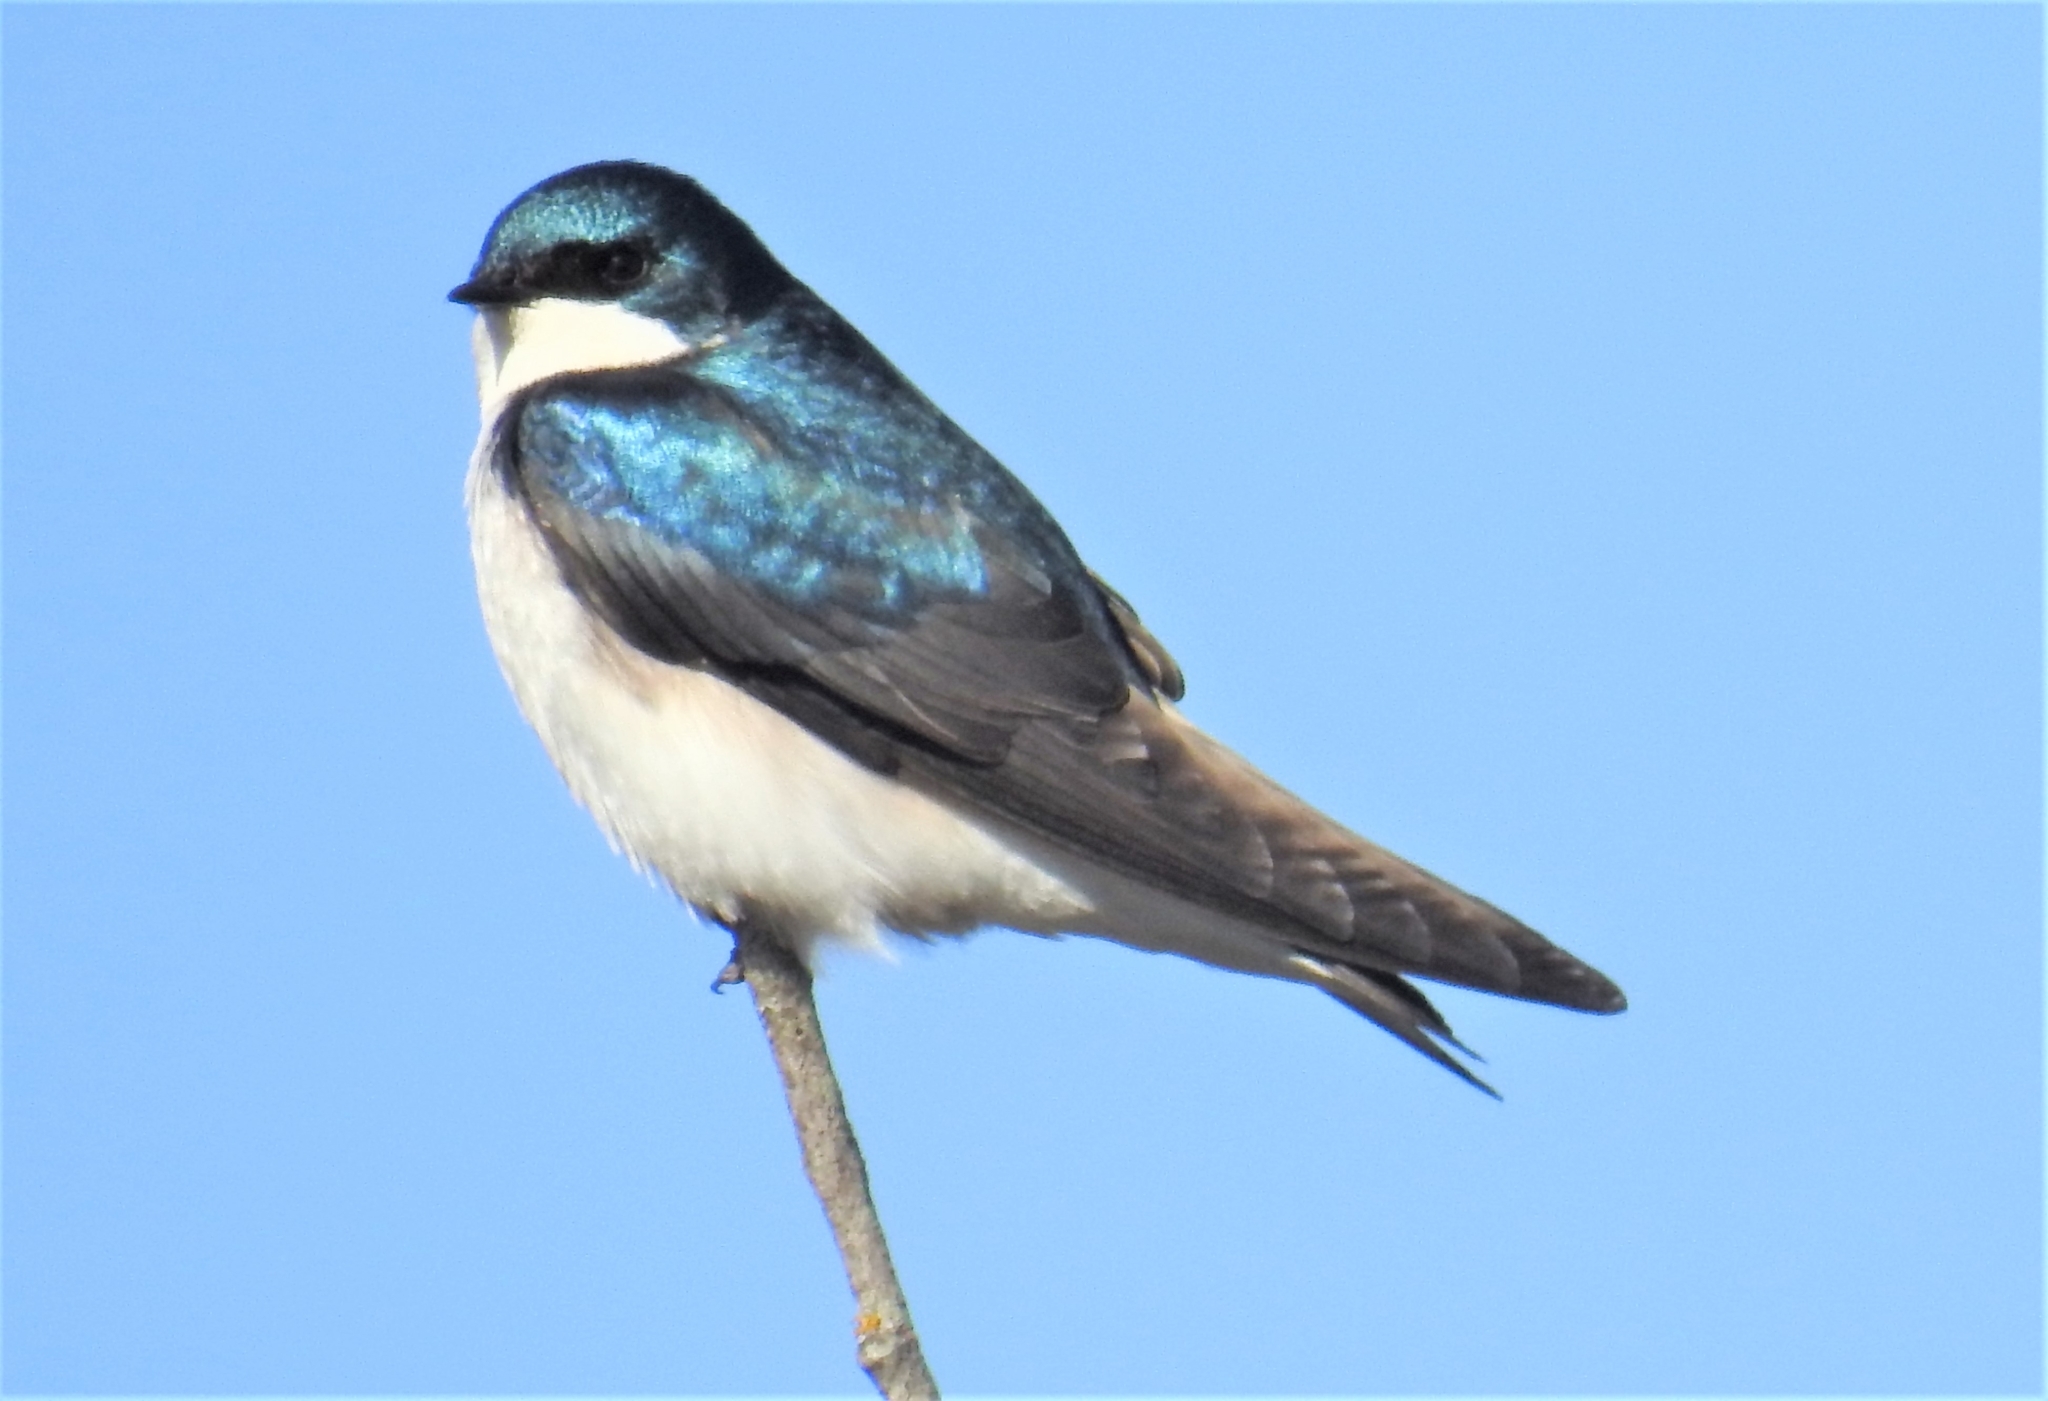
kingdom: Animalia
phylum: Chordata
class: Aves
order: Passeriformes
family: Hirundinidae
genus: Tachycineta
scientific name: Tachycineta bicolor
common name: Tree swallow
